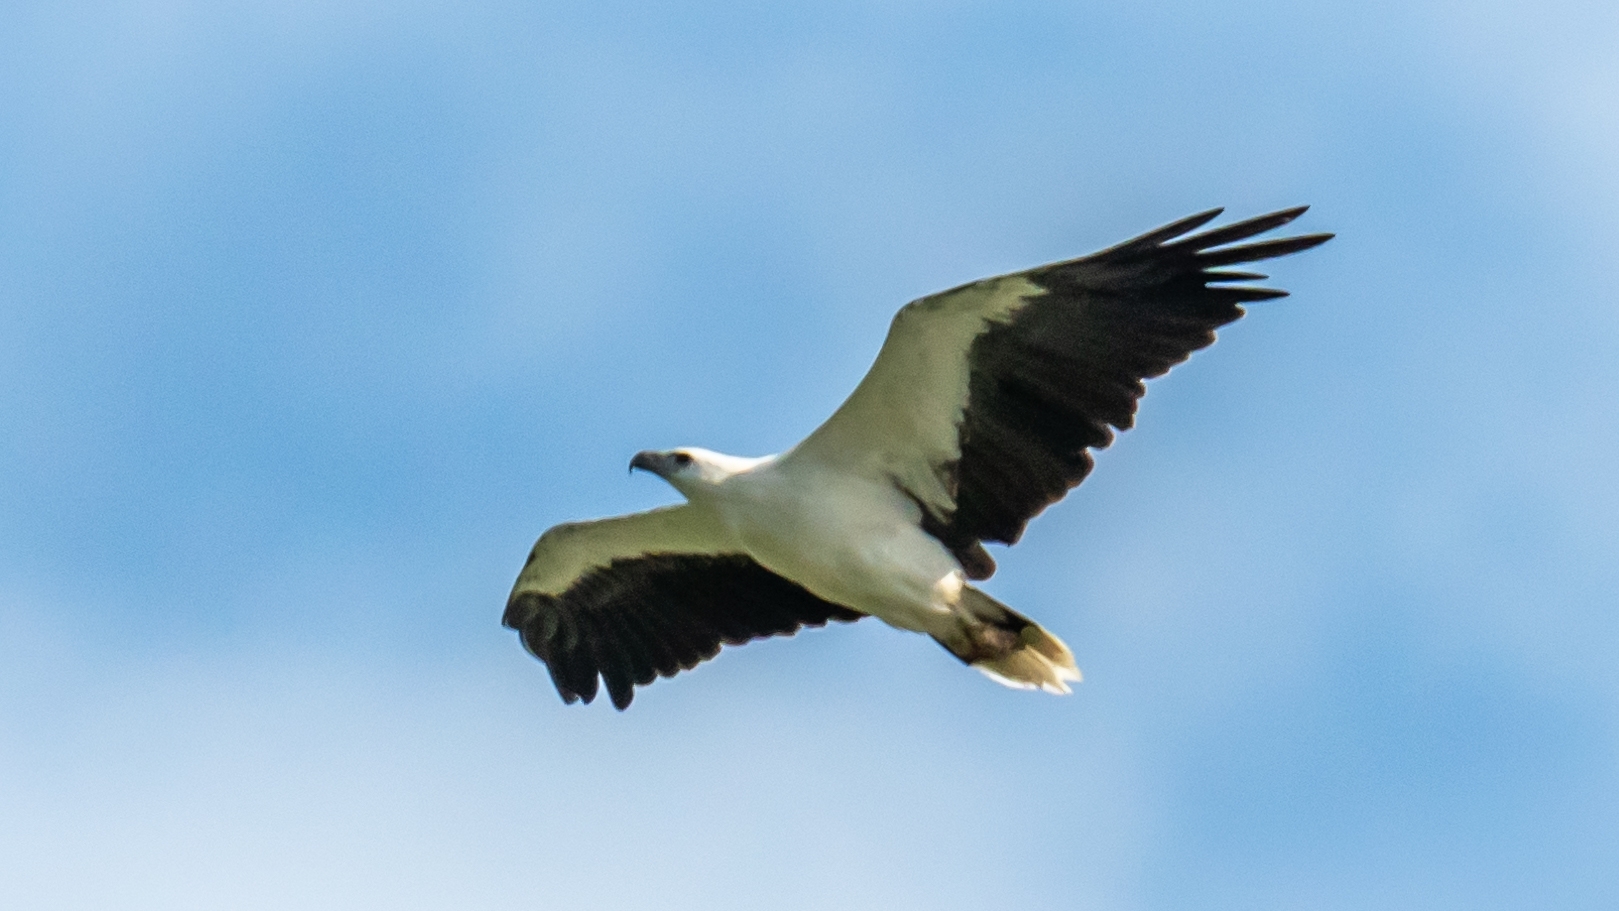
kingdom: Animalia
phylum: Chordata
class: Aves
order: Accipitriformes
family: Accipitridae
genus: Haliaeetus
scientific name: Haliaeetus leucogaster
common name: White-bellied sea eagle
